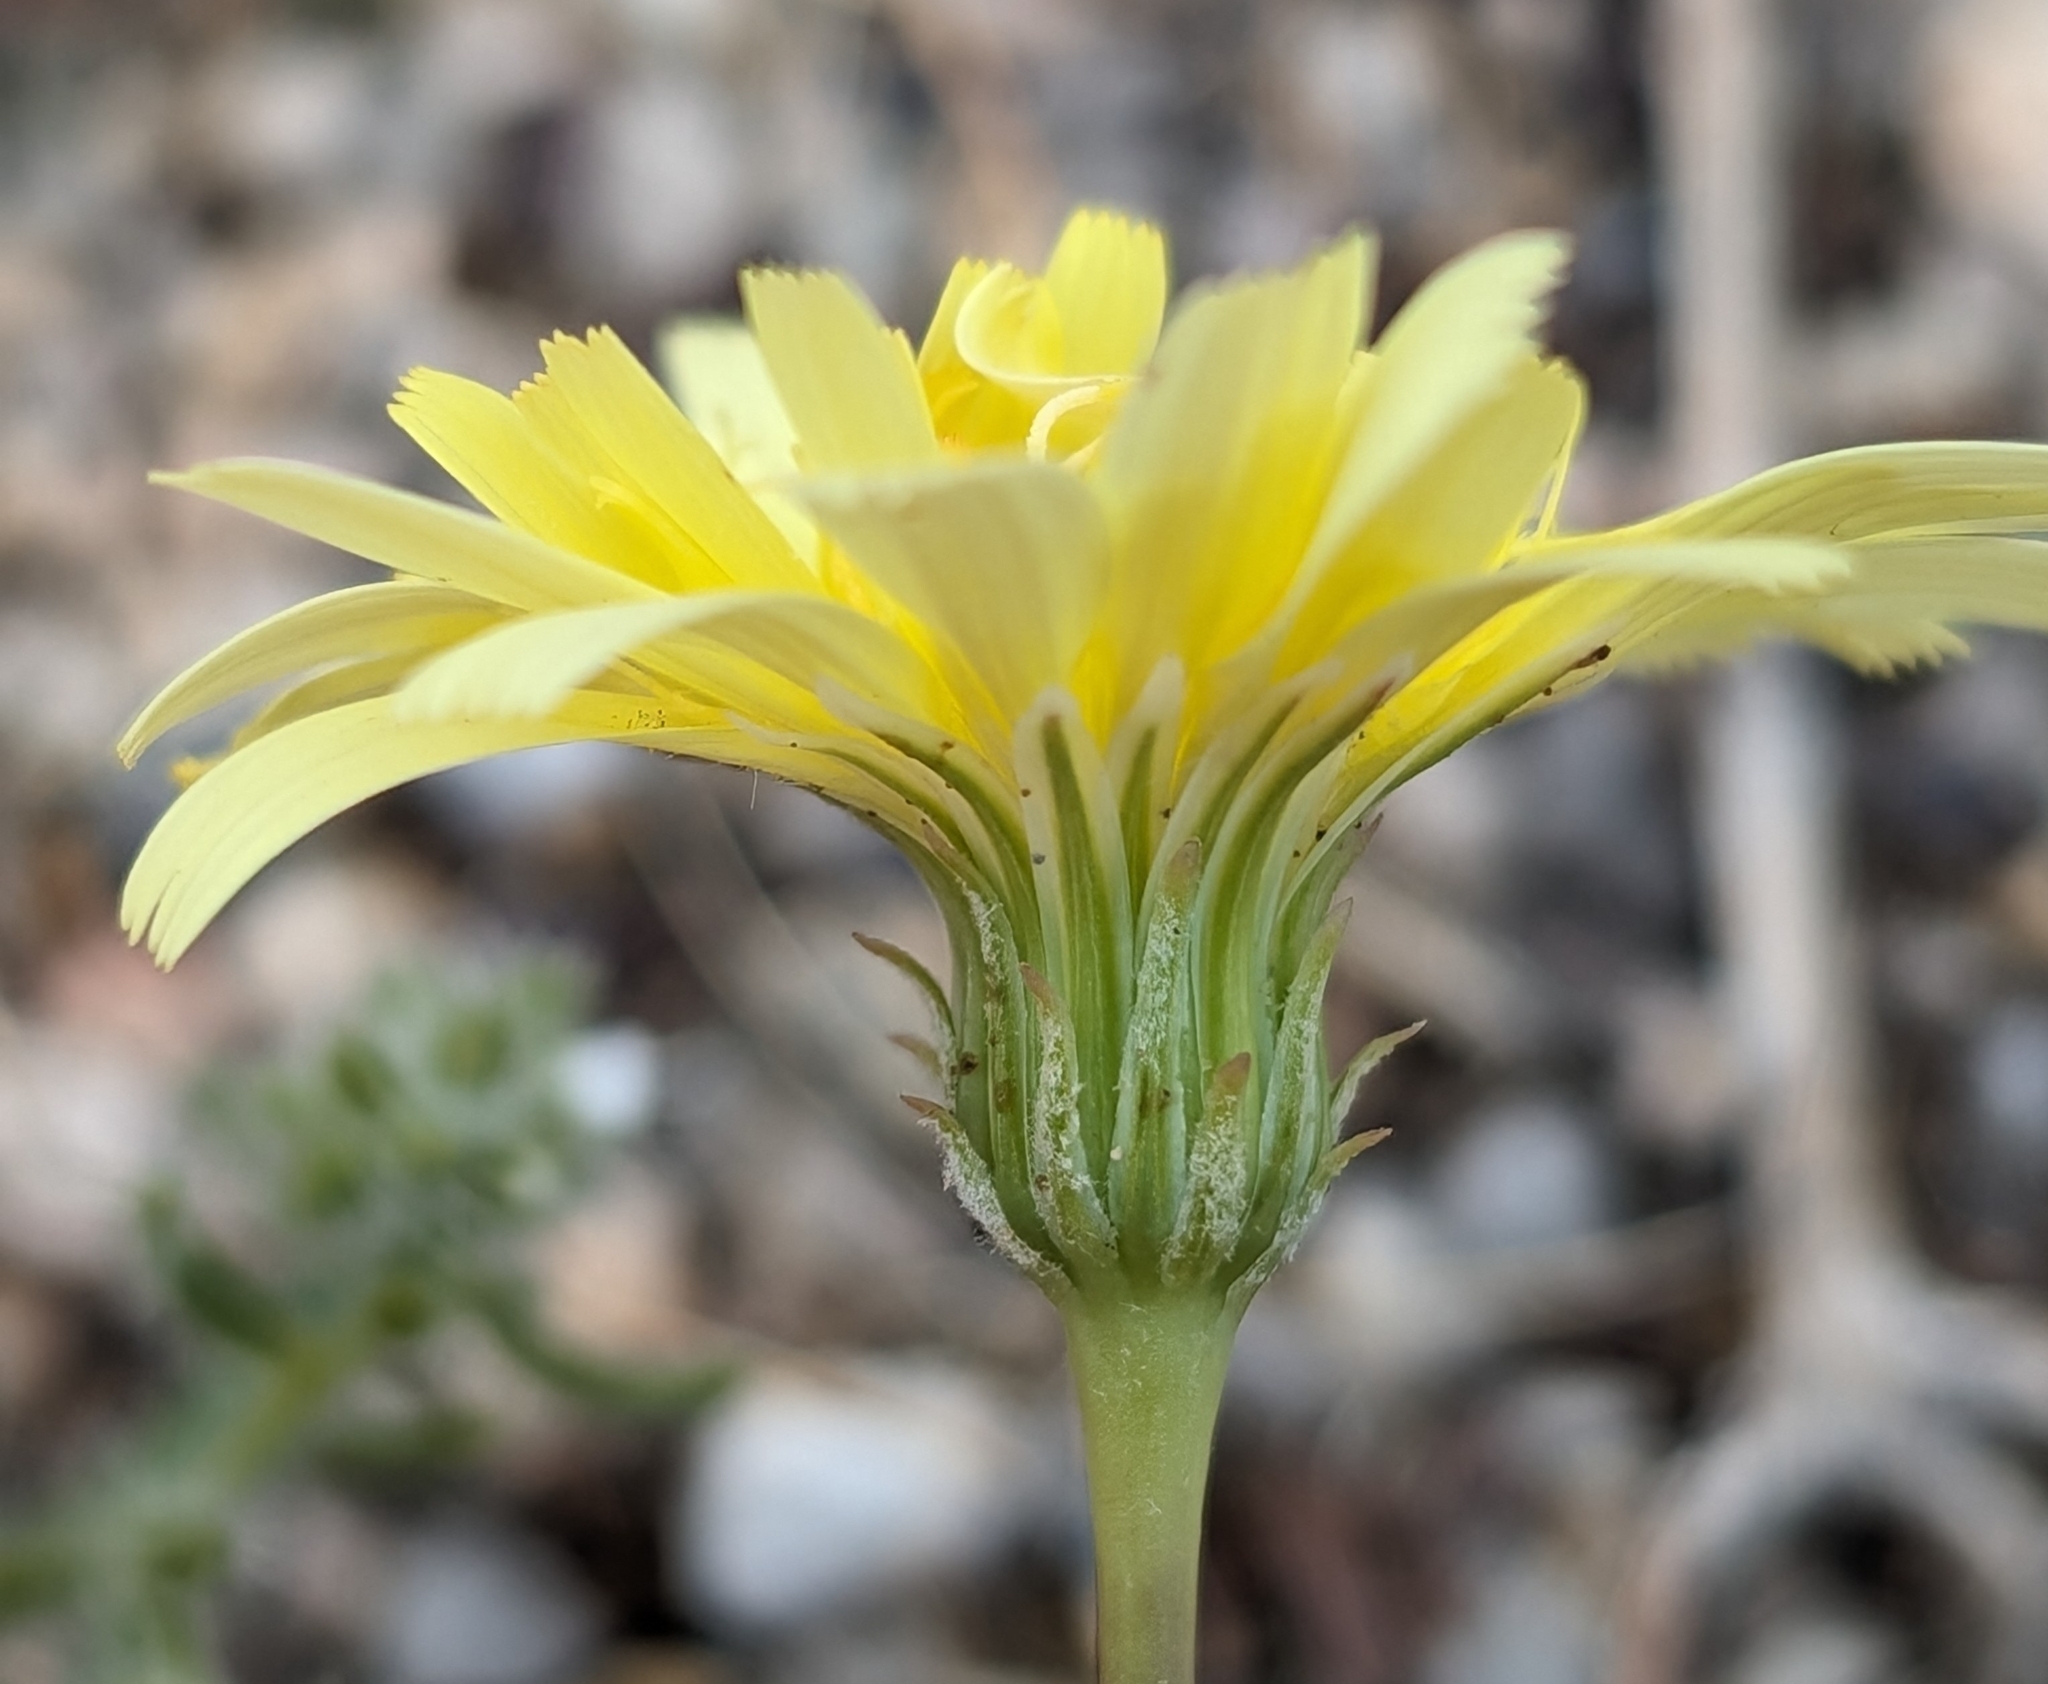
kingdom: Plantae
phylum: Tracheophyta
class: Magnoliopsida
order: Asterales
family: Asteraceae
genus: Malacothrix
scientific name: Malacothrix glabrata
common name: Smooth desert-dandelion
